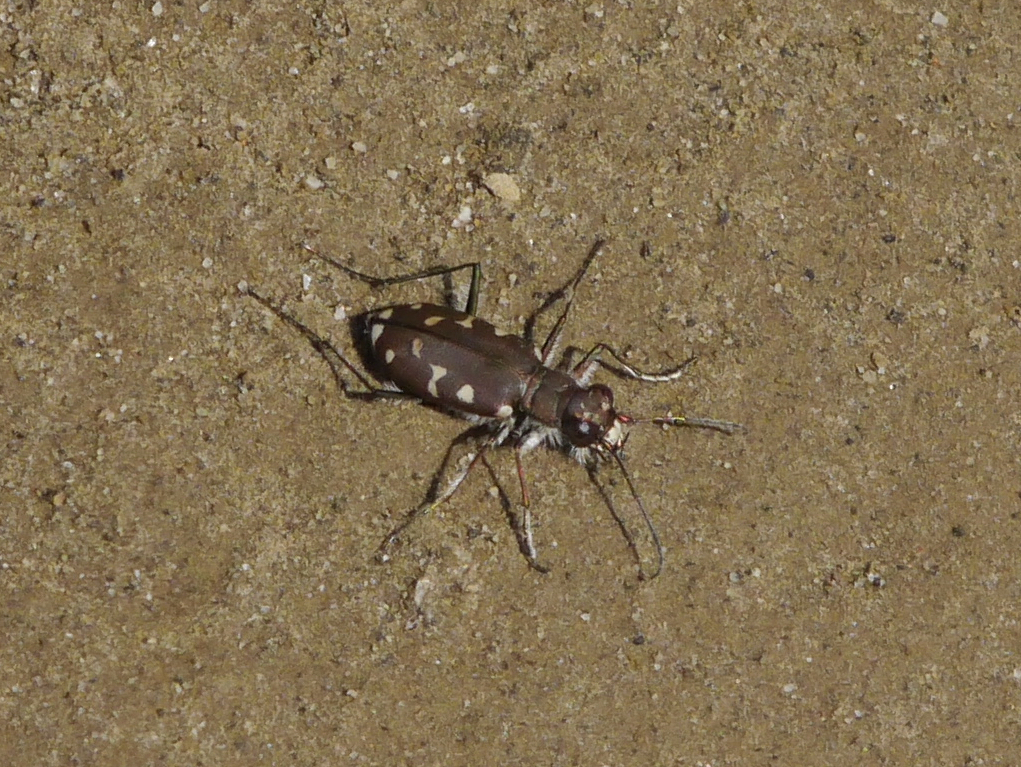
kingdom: Animalia
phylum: Arthropoda
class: Insecta
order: Coleoptera
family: Carabidae
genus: Cicindela
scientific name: Cicindela oregona
